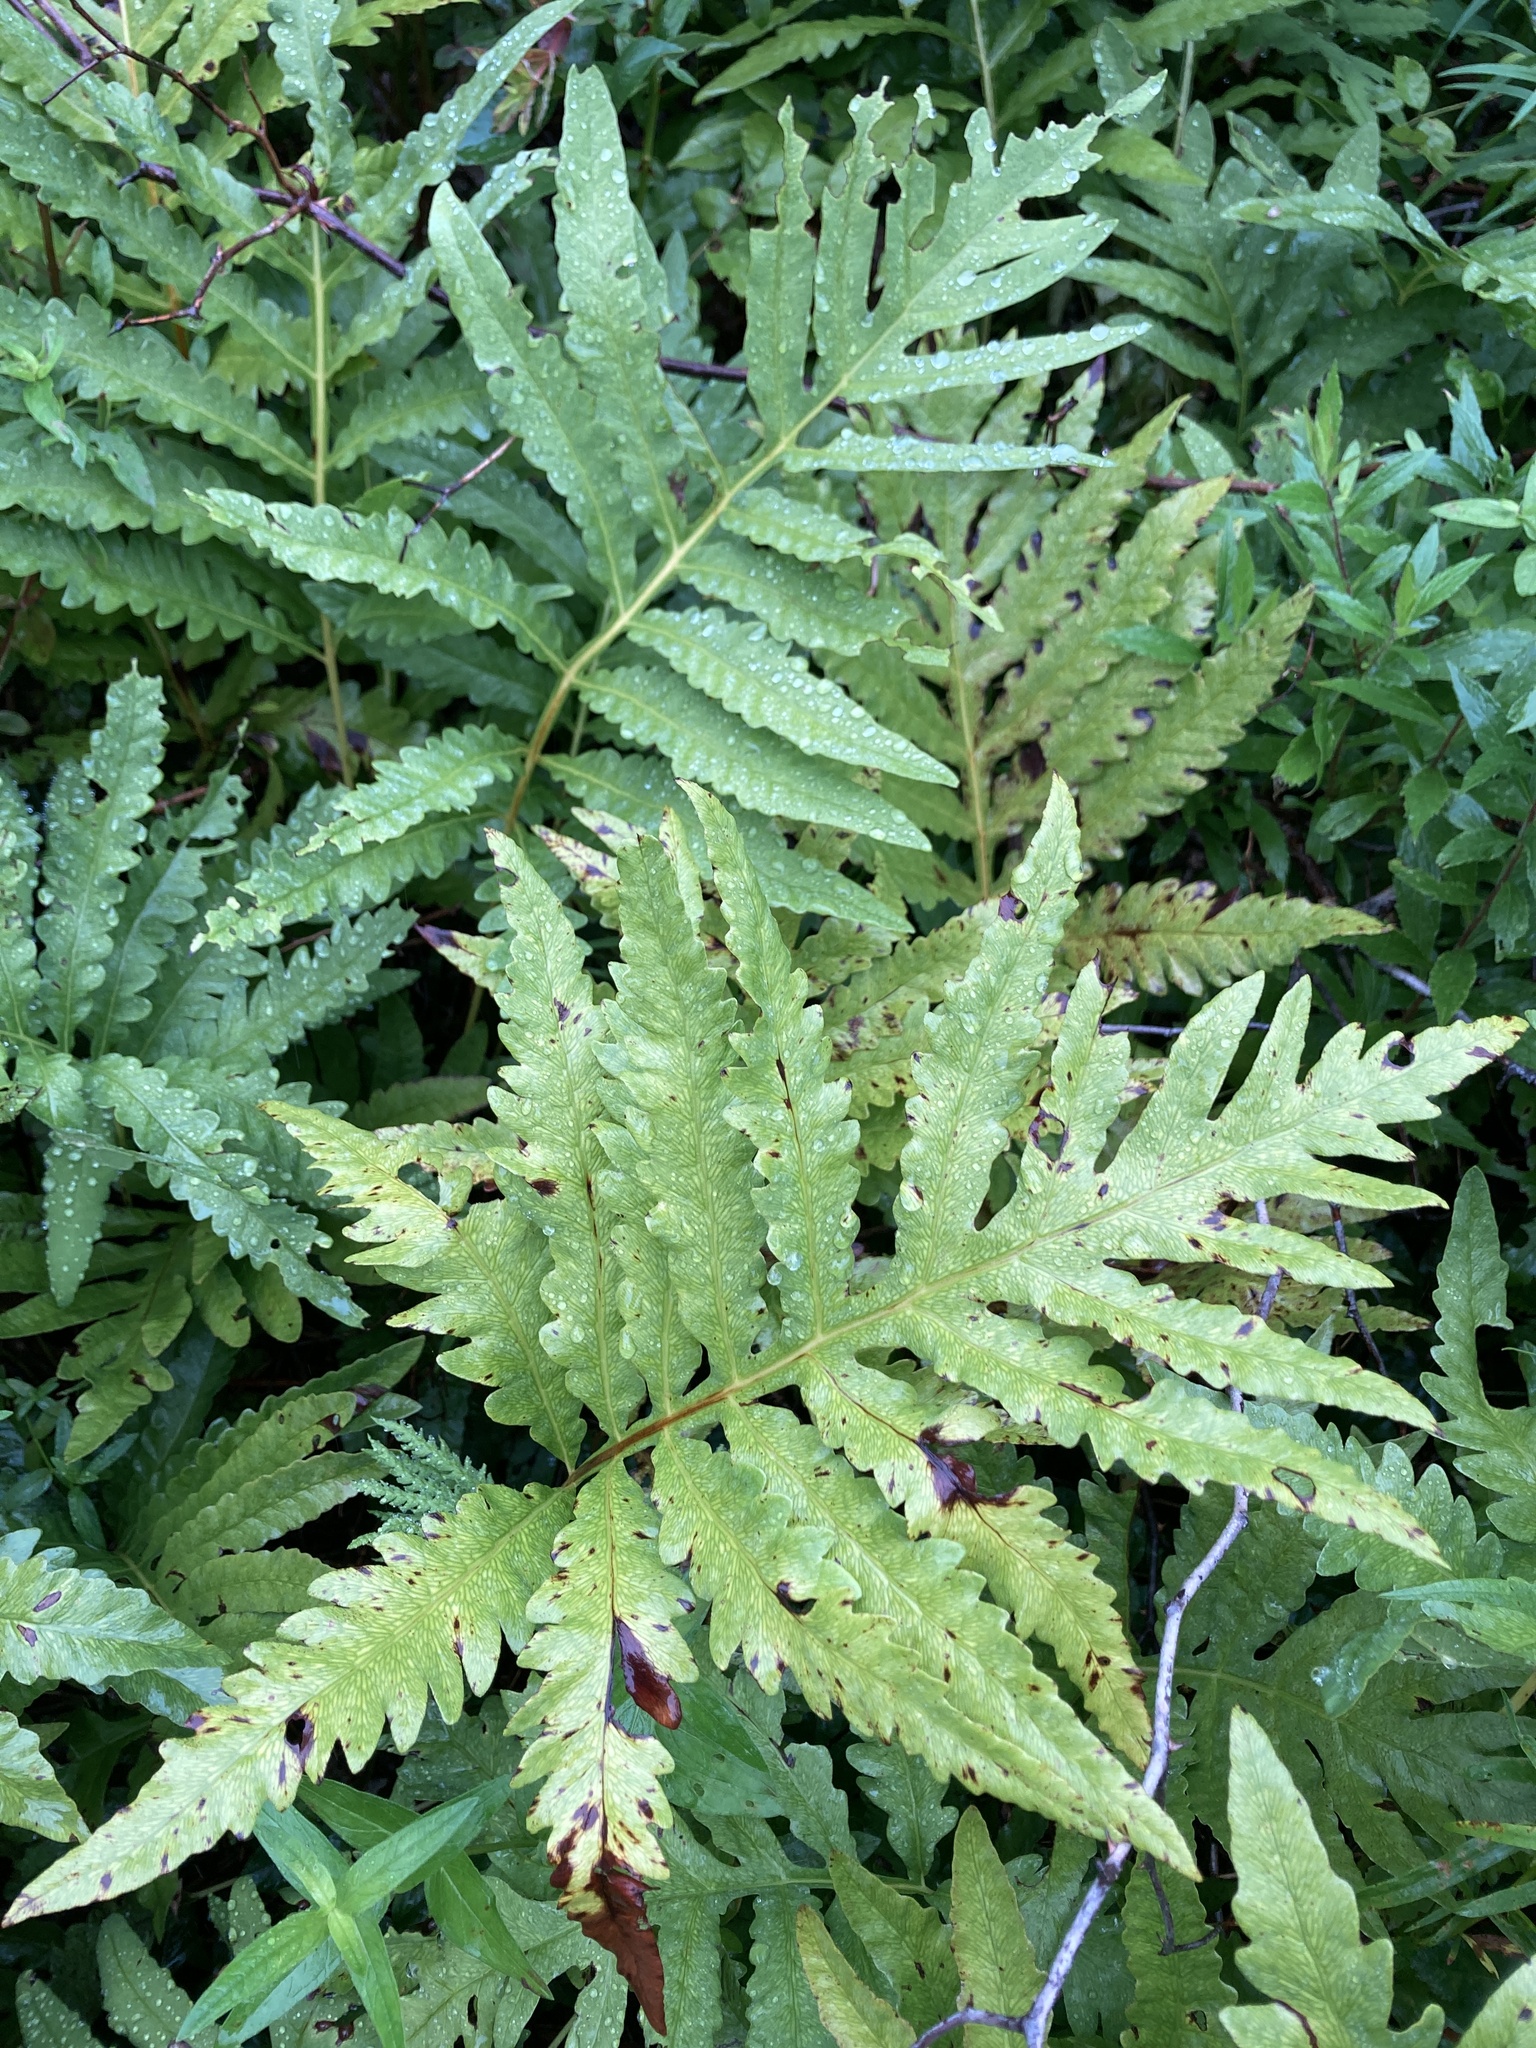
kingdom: Plantae
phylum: Tracheophyta
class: Polypodiopsida
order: Polypodiales
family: Onocleaceae
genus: Onoclea
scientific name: Onoclea sensibilis
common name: Sensitive fern
